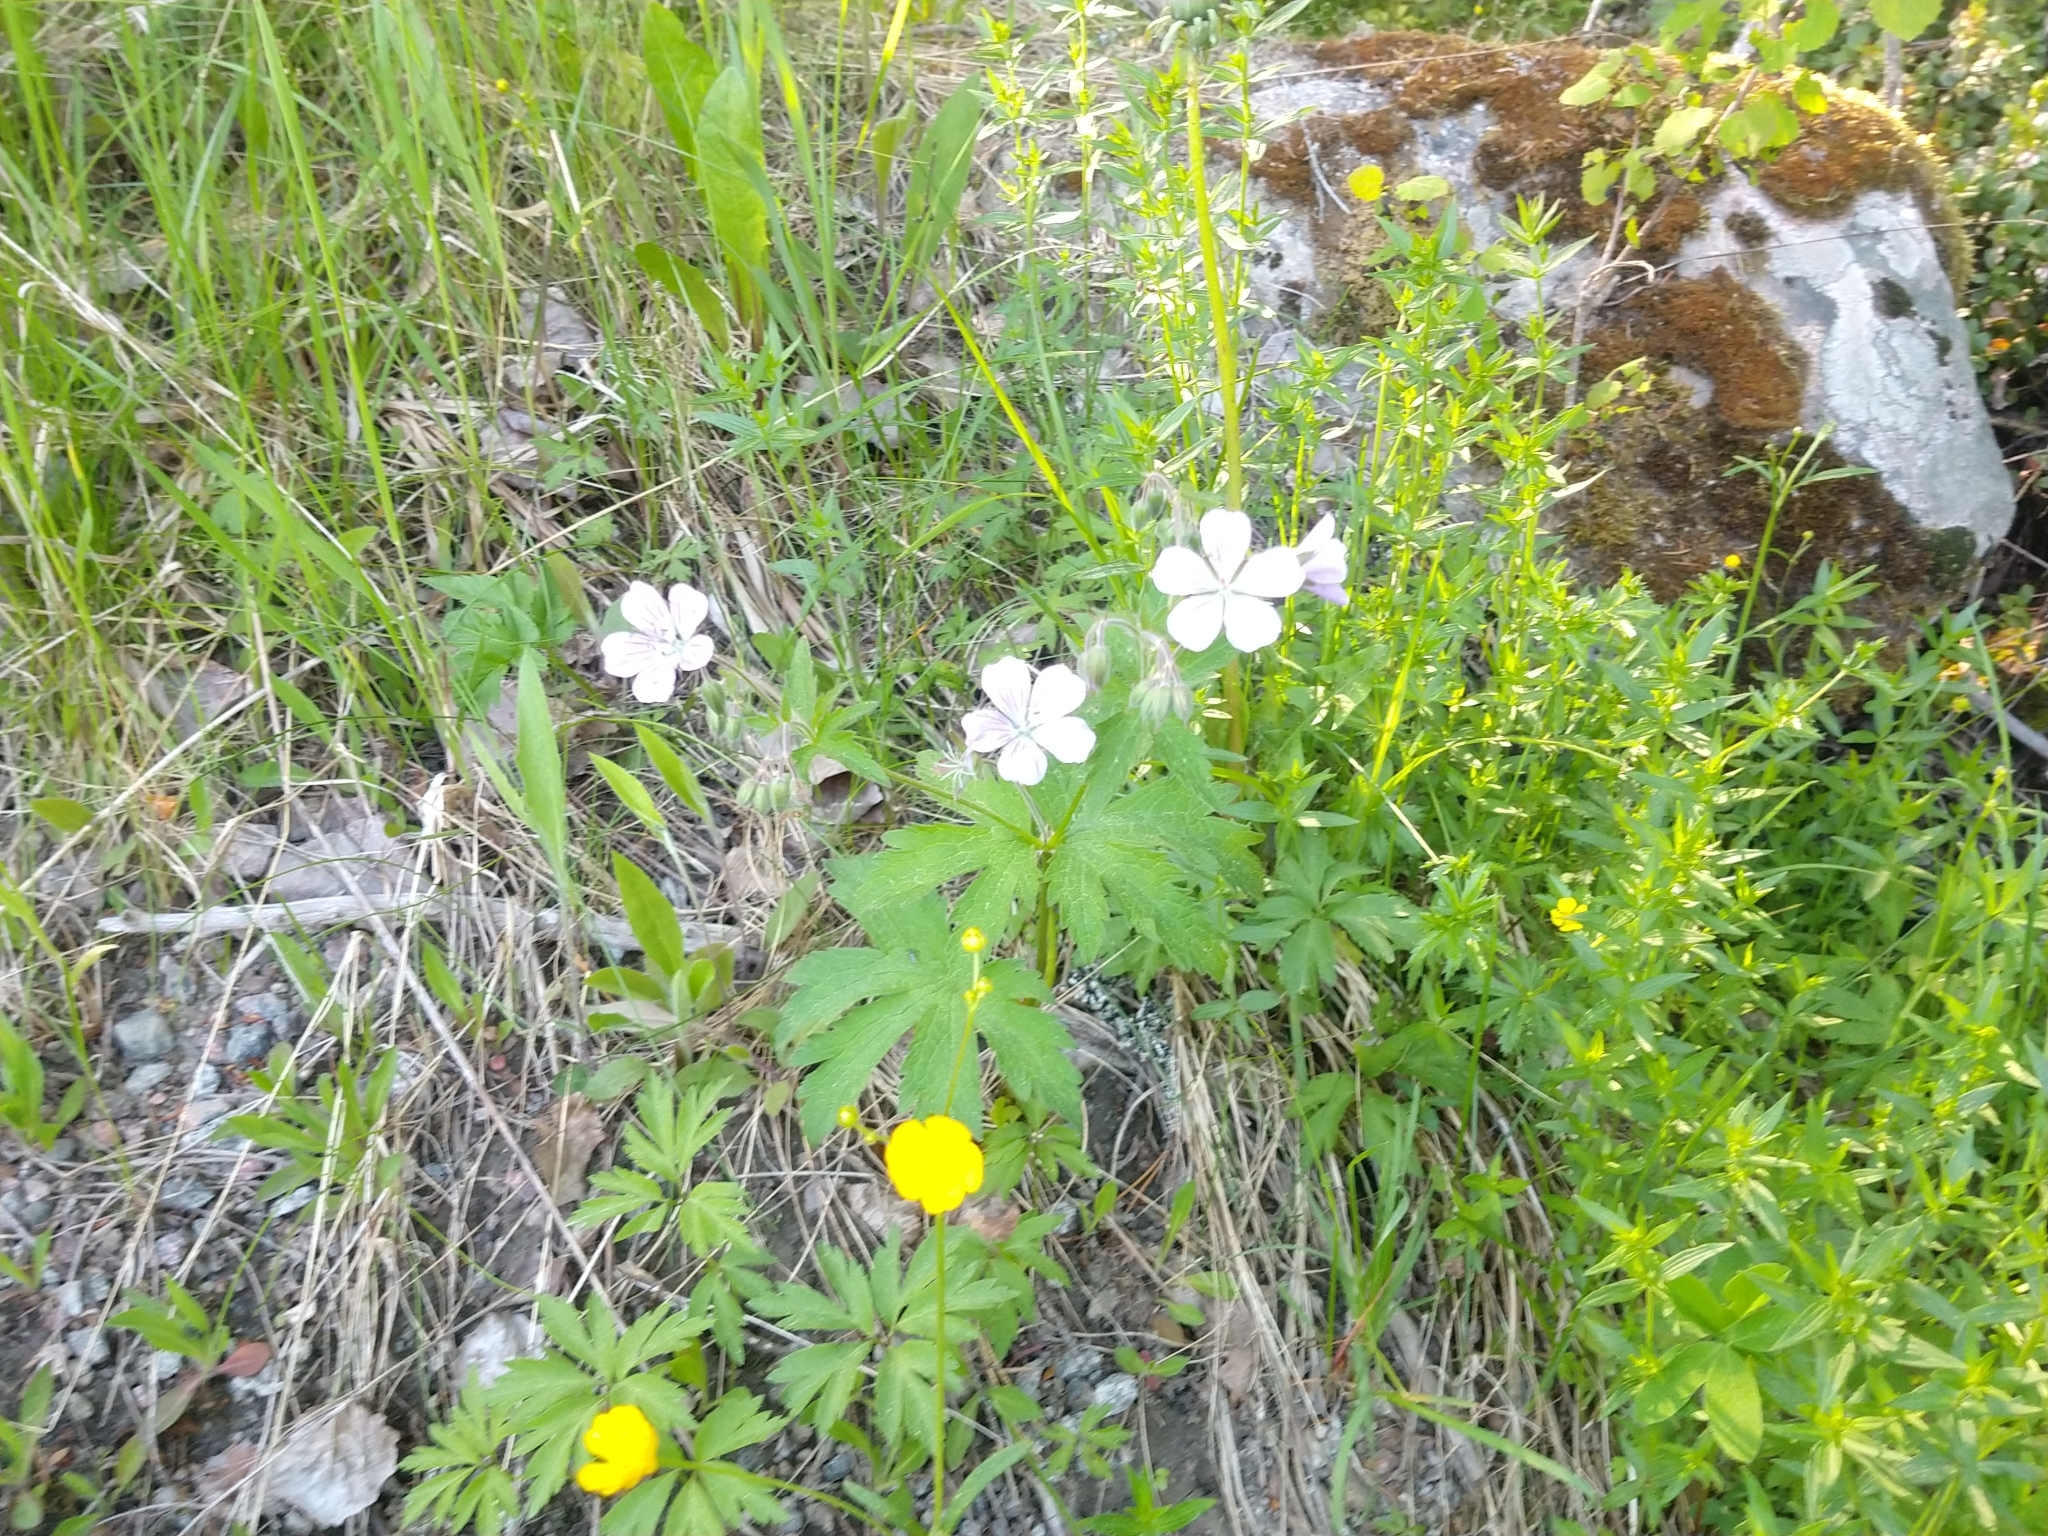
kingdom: Plantae
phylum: Tracheophyta
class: Magnoliopsida
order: Geraniales
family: Geraniaceae
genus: Geranium
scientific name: Geranium sylvaticum
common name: Wood crane's-bill
